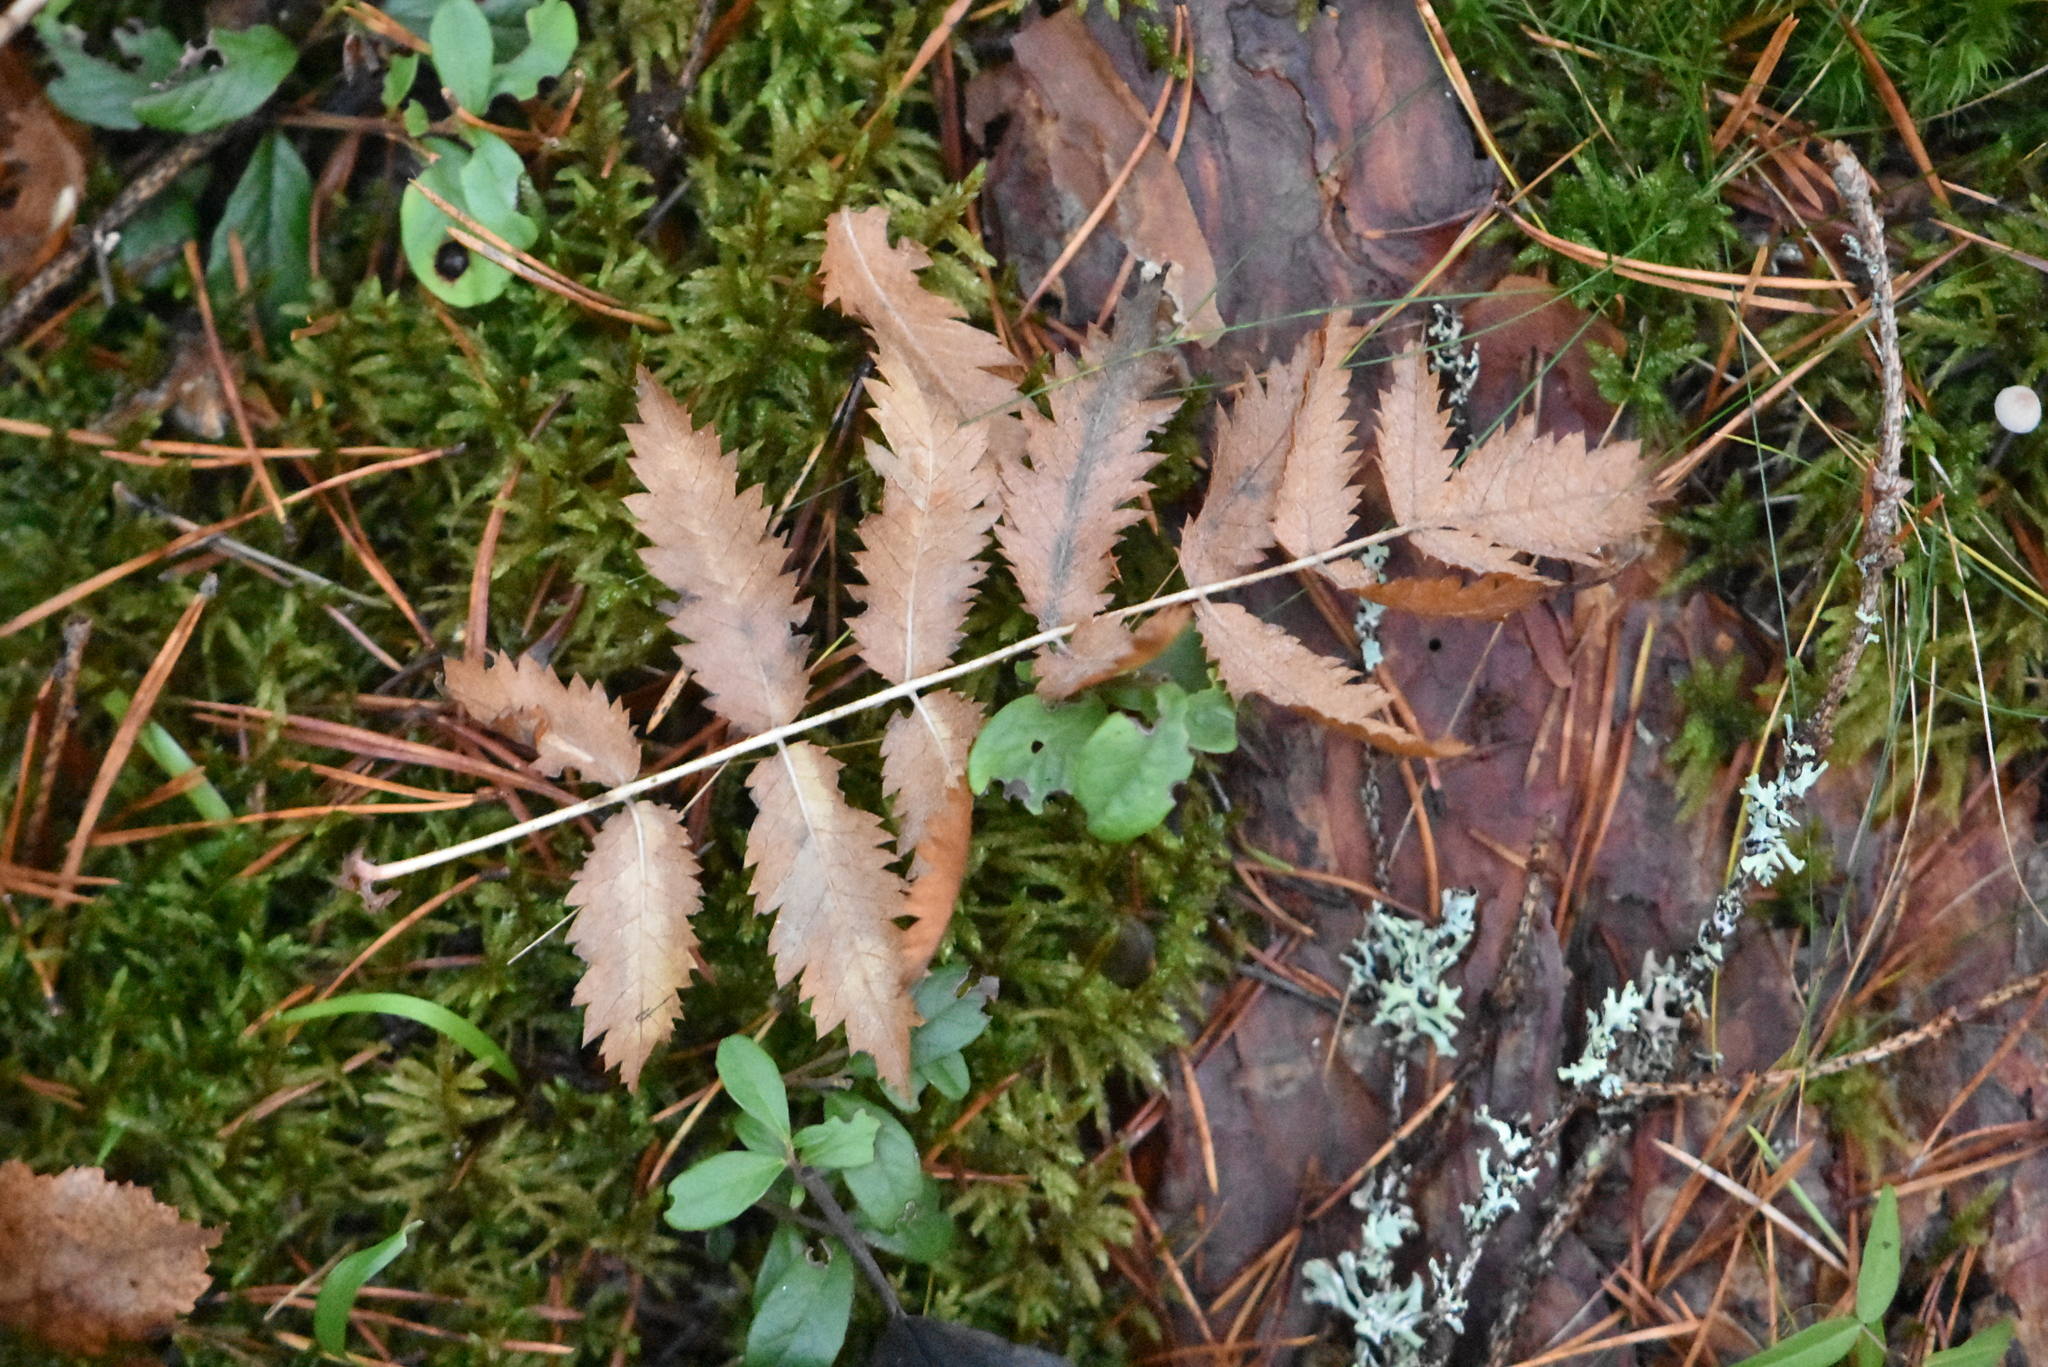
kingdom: Plantae
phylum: Tracheophyta
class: Magnoliopsida
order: Rosales
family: Rosaceae
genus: Sorbus
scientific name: Sorbus aucuparia
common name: Rowan
